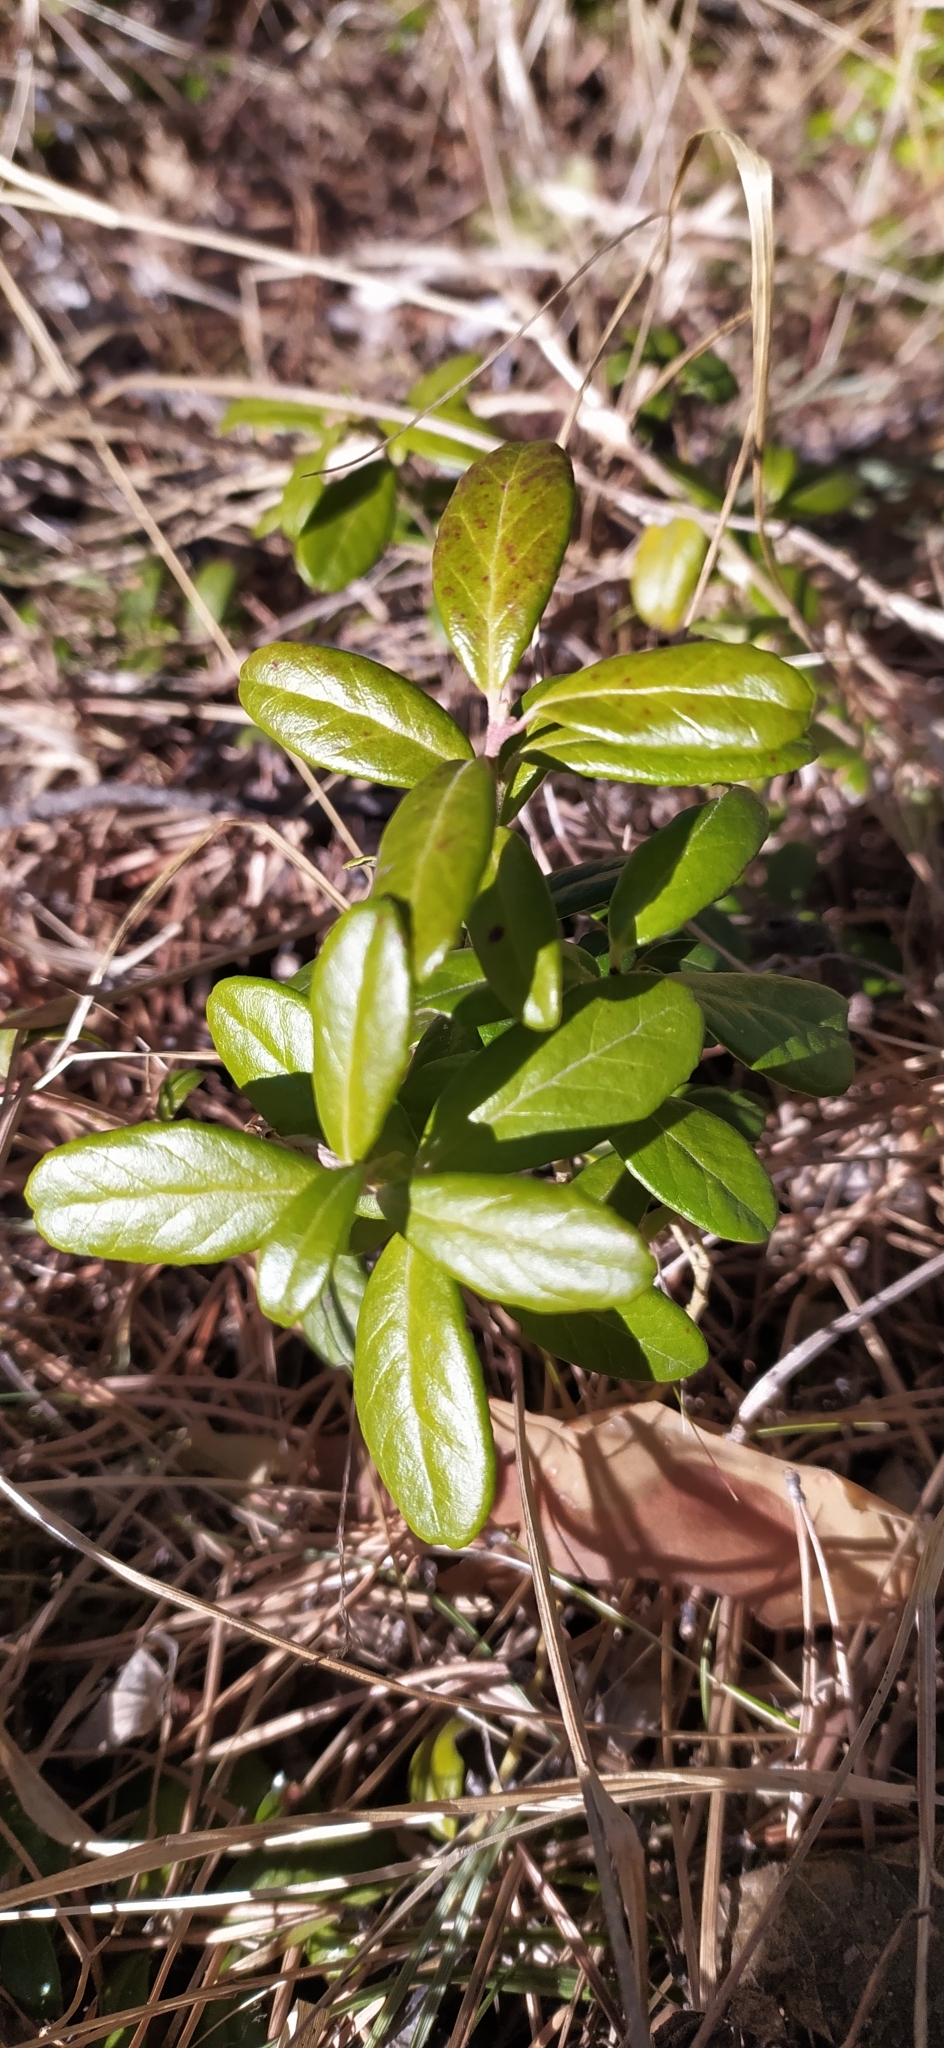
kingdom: Plantae
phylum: Tracheophyta
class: Magnoliopsida
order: Ericales
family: Ericaceae
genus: Vaccinium
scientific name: Vaccinium vitis-idaea
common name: Cowberry
